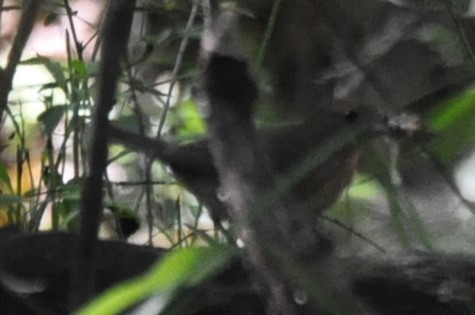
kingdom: Animalia
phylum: Chordata
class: Aves
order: Passeriformes
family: Tyrannidae
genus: Sayornis
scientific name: Sayornis phoebe
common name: Eastern phoebe
